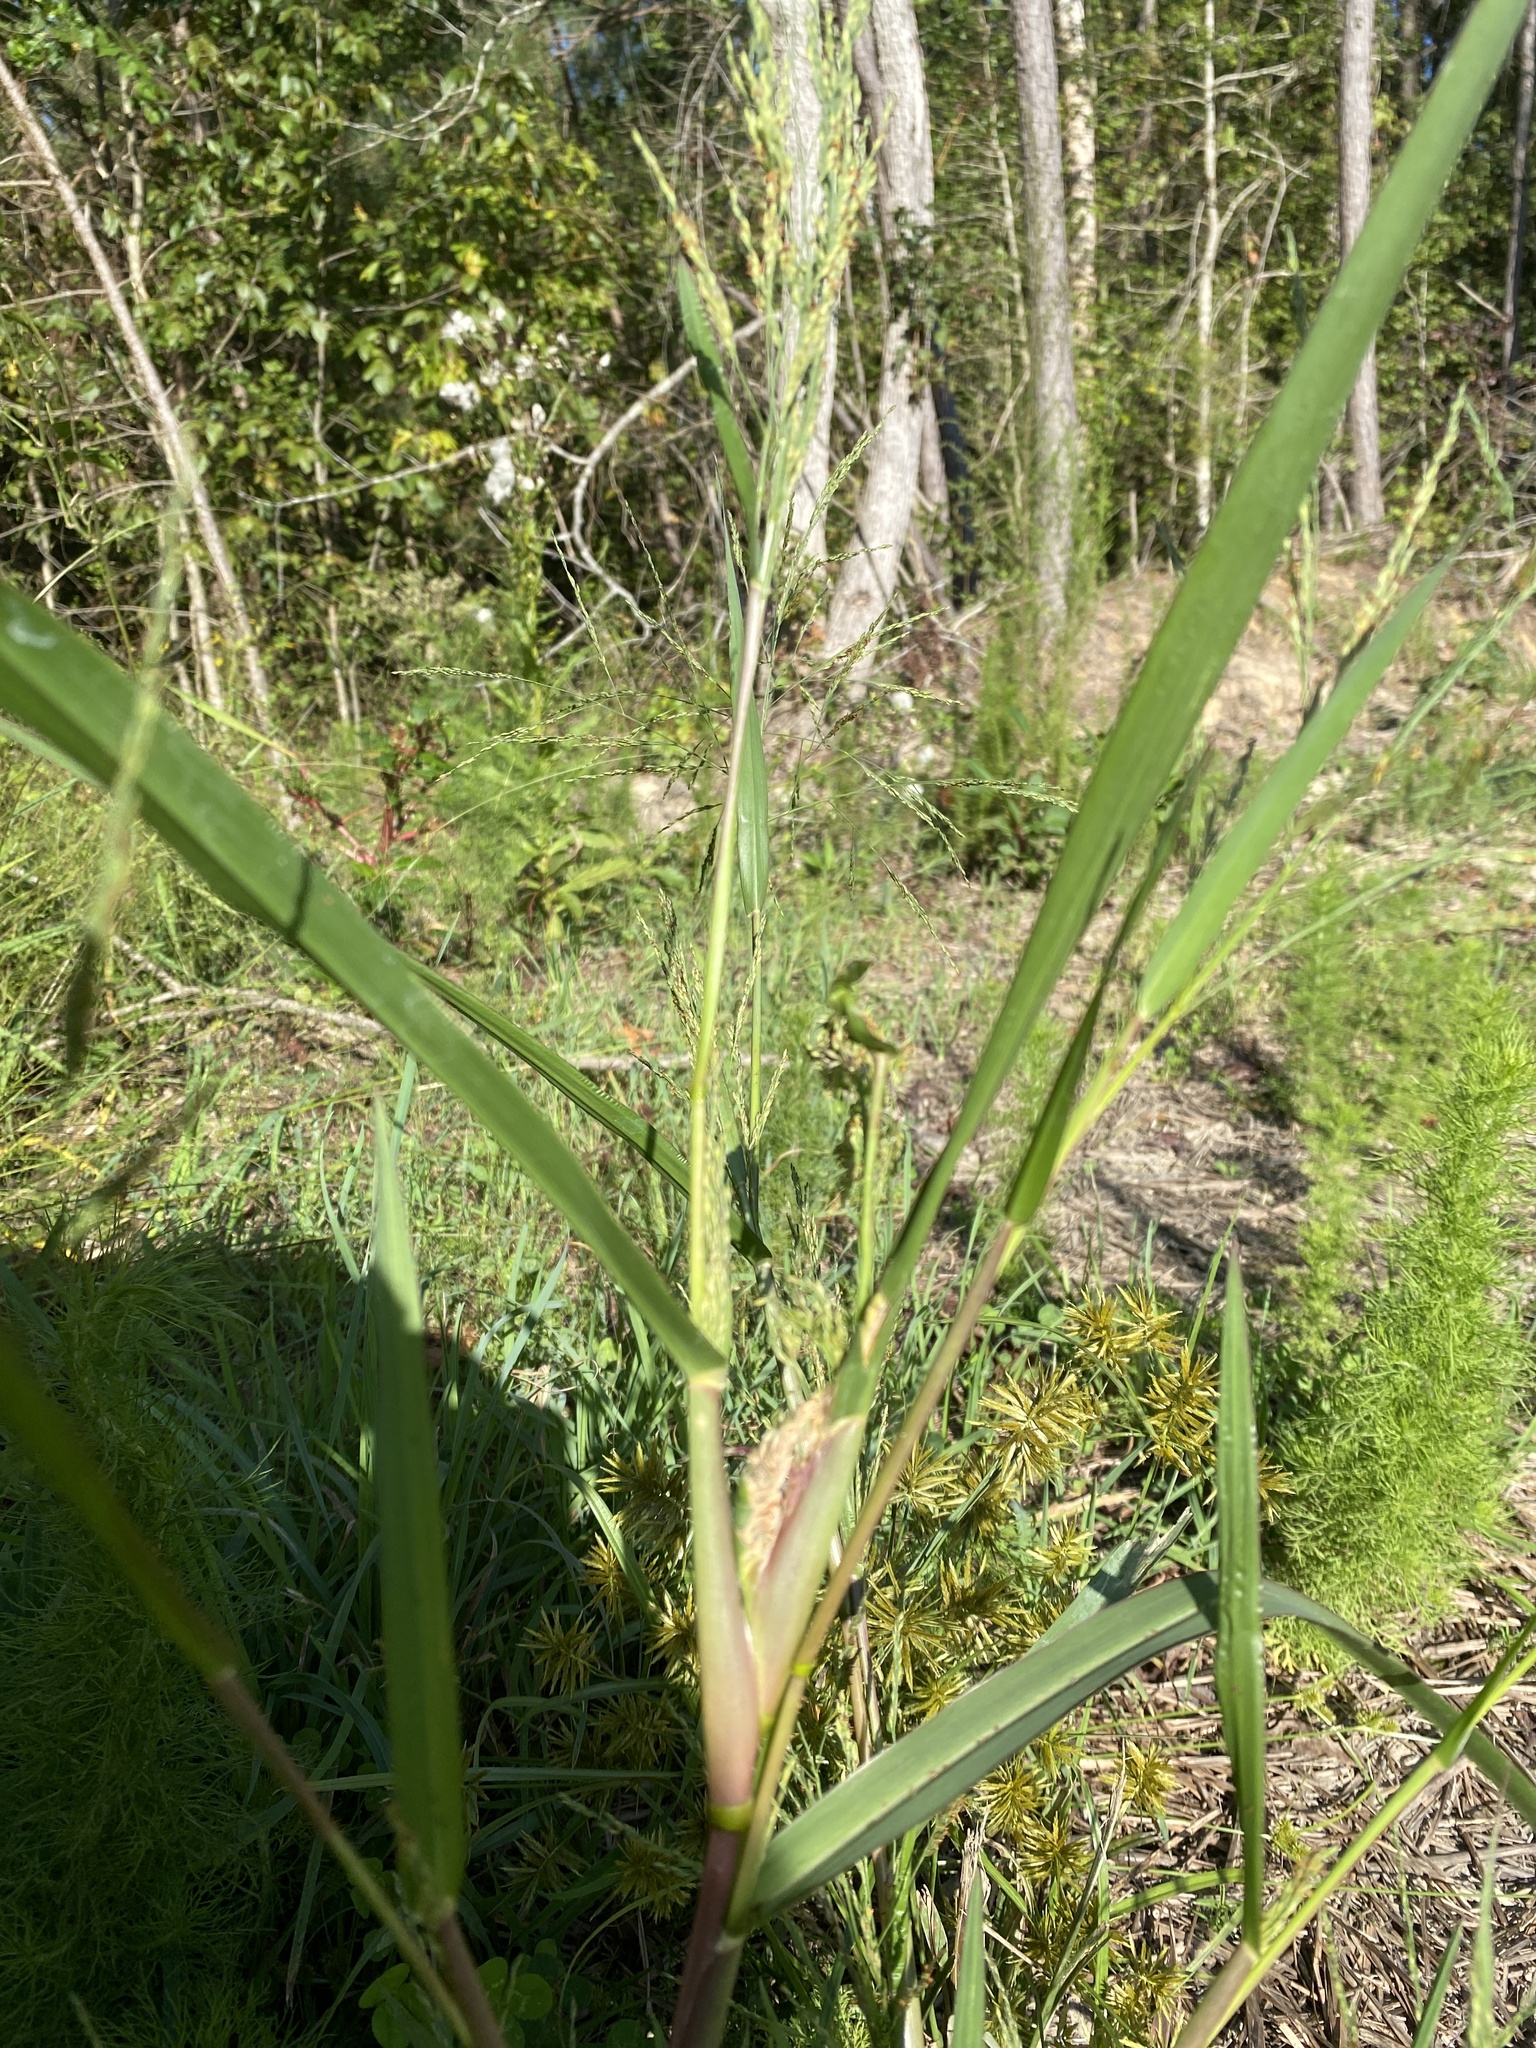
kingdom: Plantae
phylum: Tracheophyta
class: Liliopsida
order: Poales
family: Poaceae
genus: Panicum
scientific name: Panicum dichotomiflorum
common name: Autumn millet
